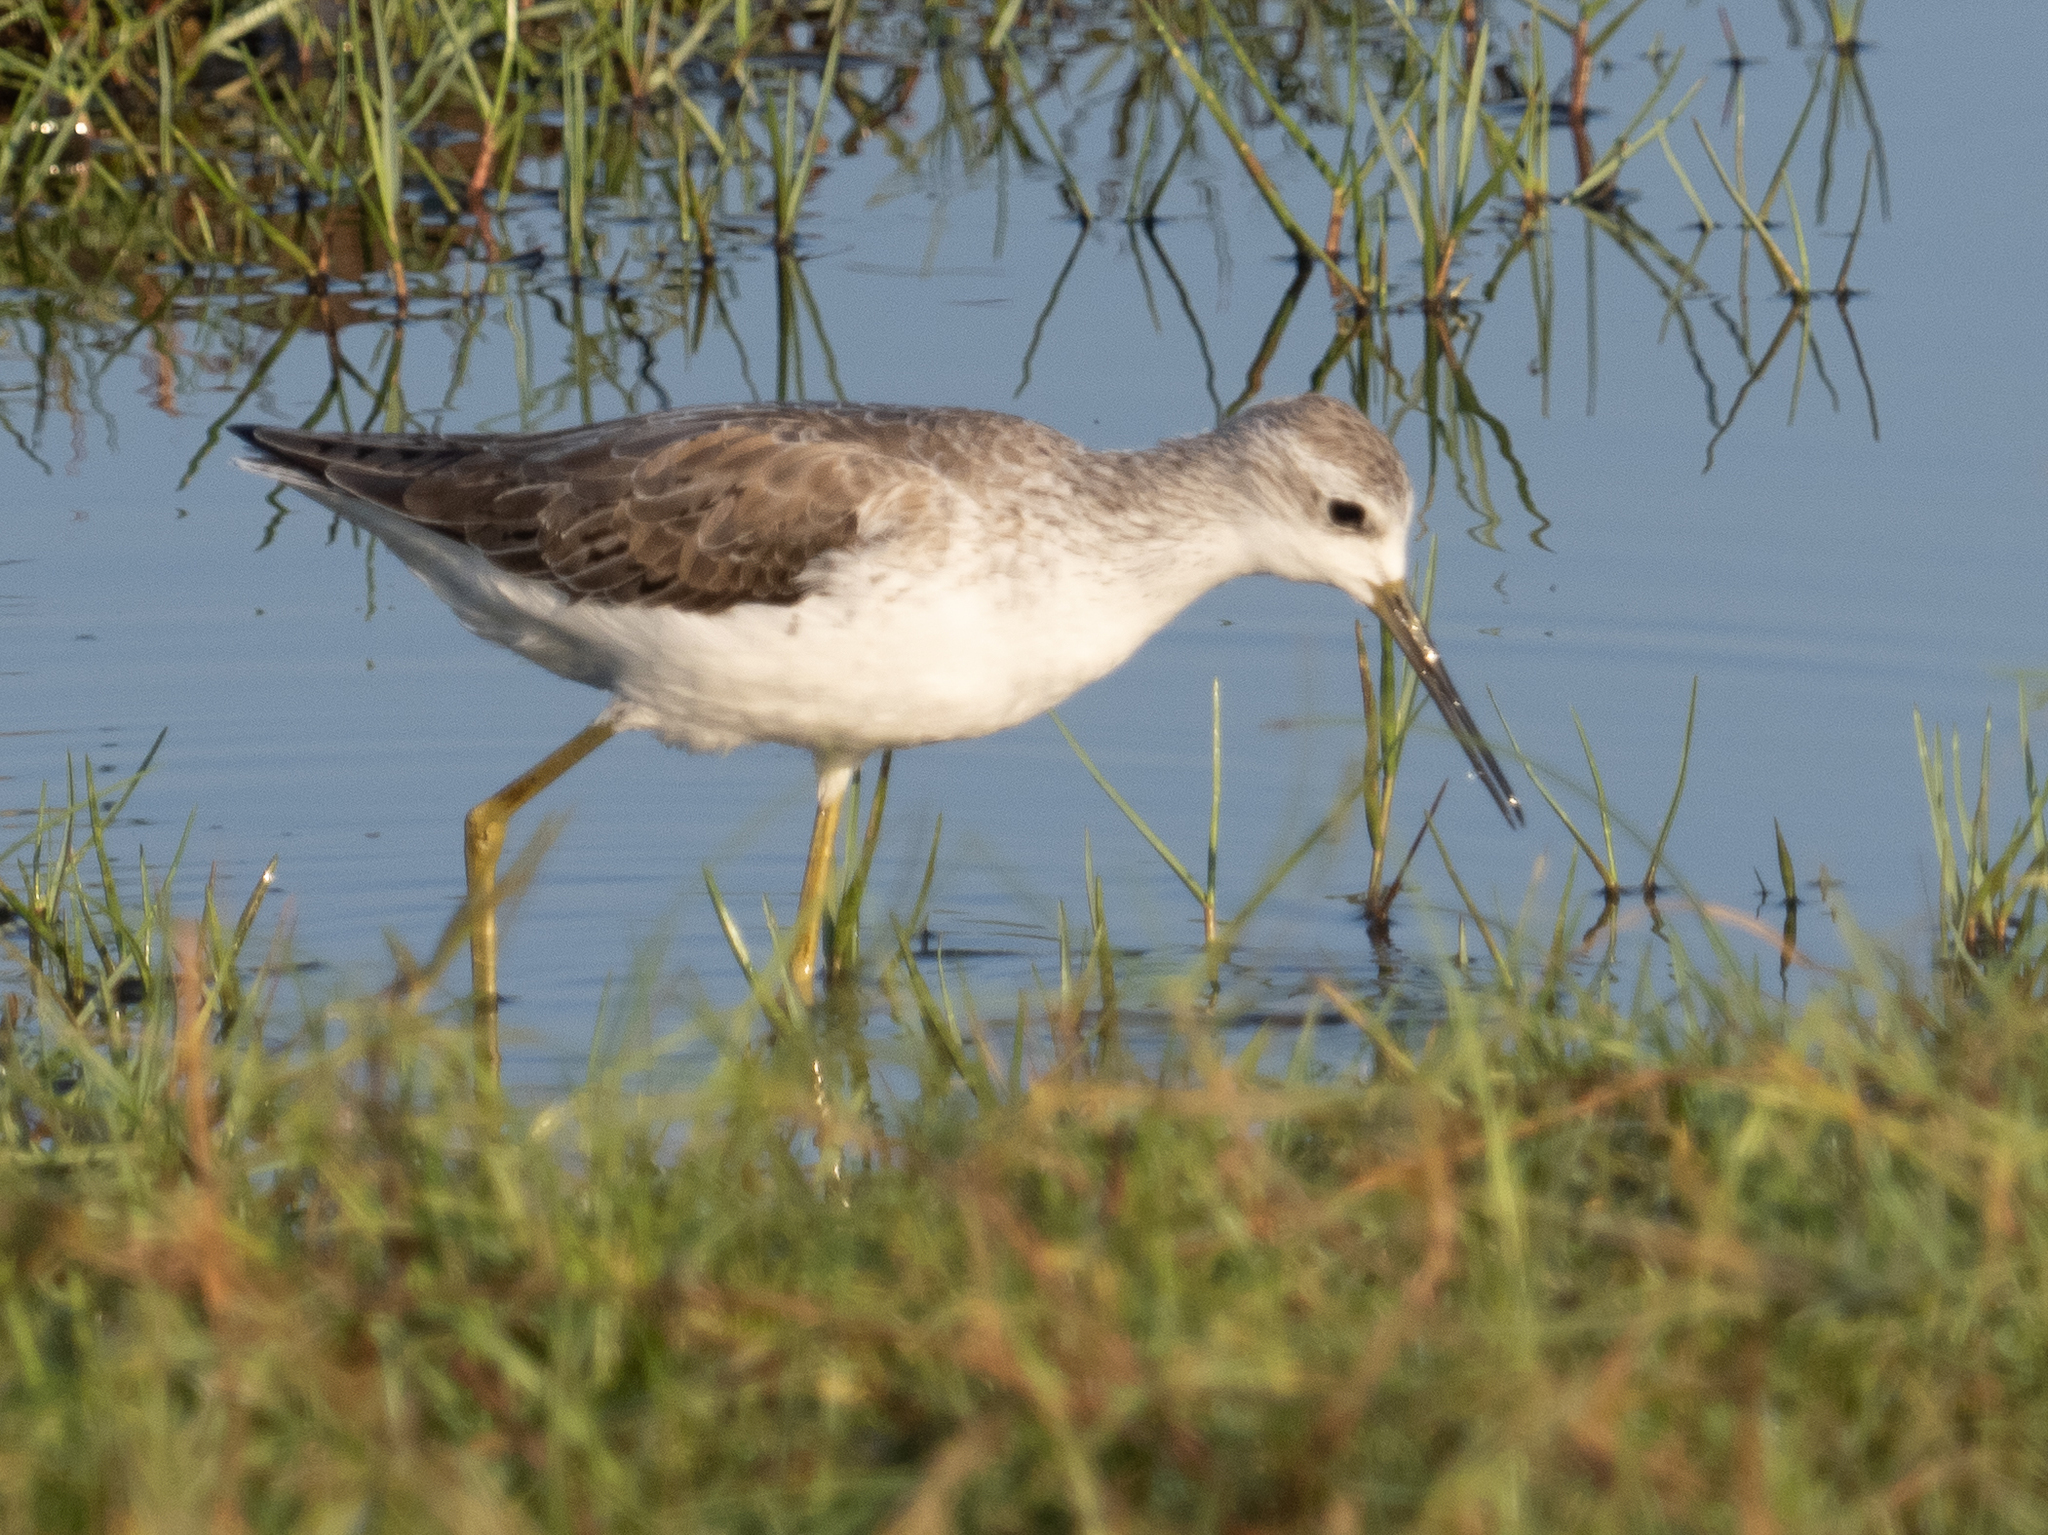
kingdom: Animalia
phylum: Chordata
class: Aves
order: Charadriiformes
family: Scolopacidae
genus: Tringa
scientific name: Tringa stagnatilis
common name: Marsh sandpiper
